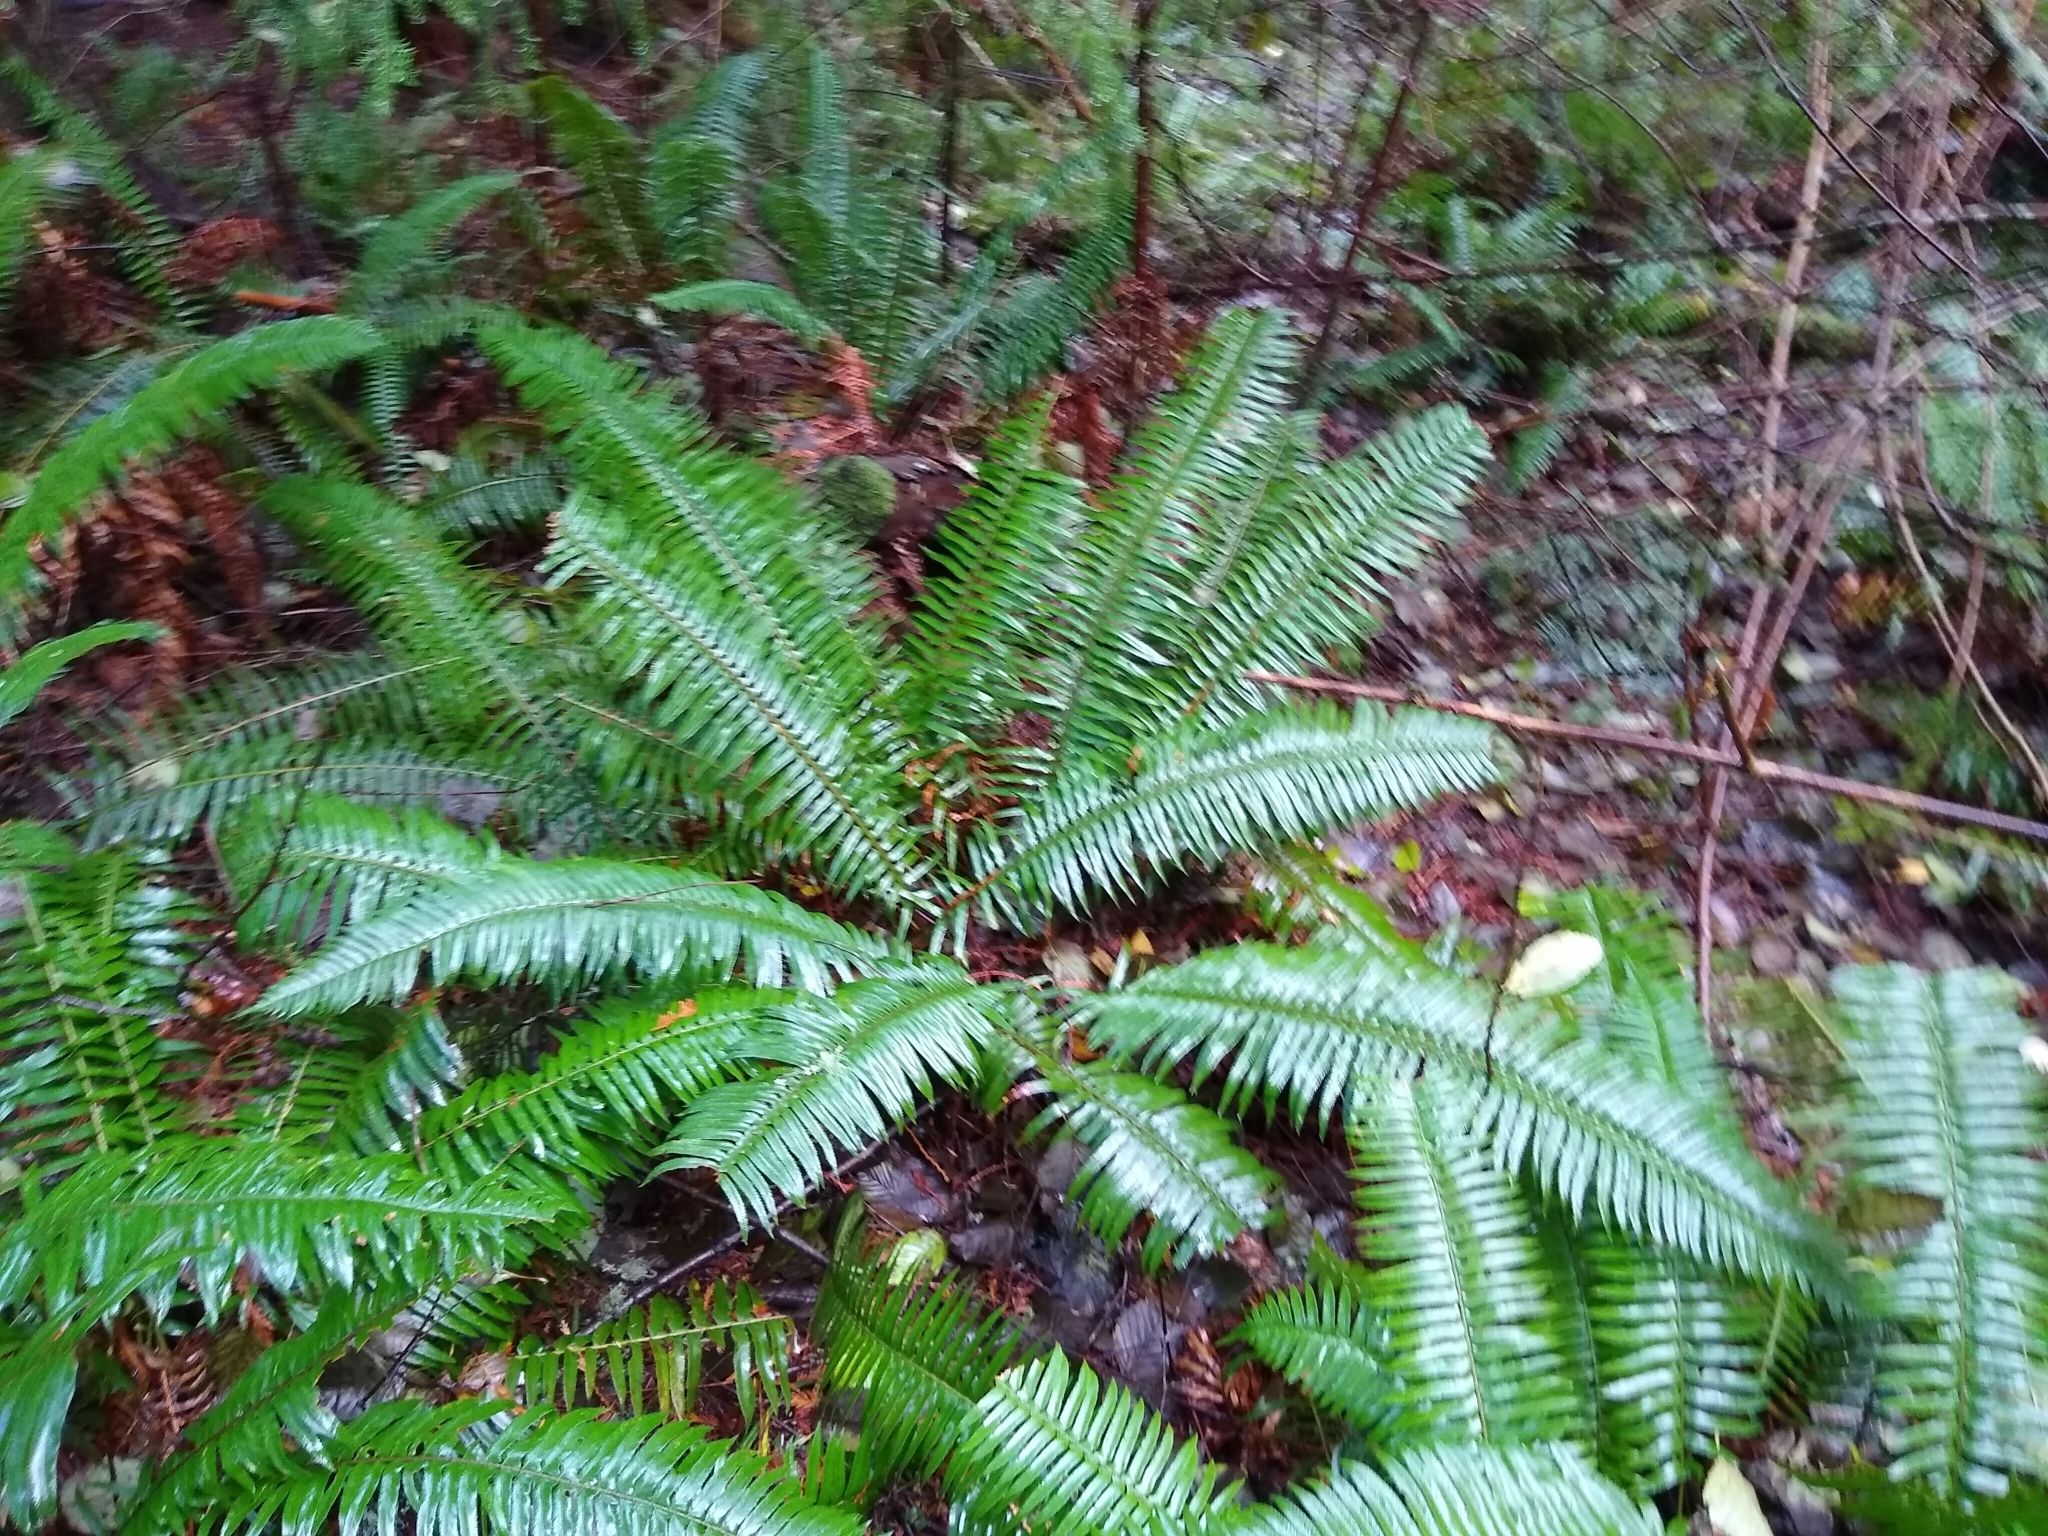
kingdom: Plantae
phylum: Tracheophyta
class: Polypodiopsida
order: Polypodiales
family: Dryopteridaceae
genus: Polystichum
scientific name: Polystichum munitum
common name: Western sword-fern
